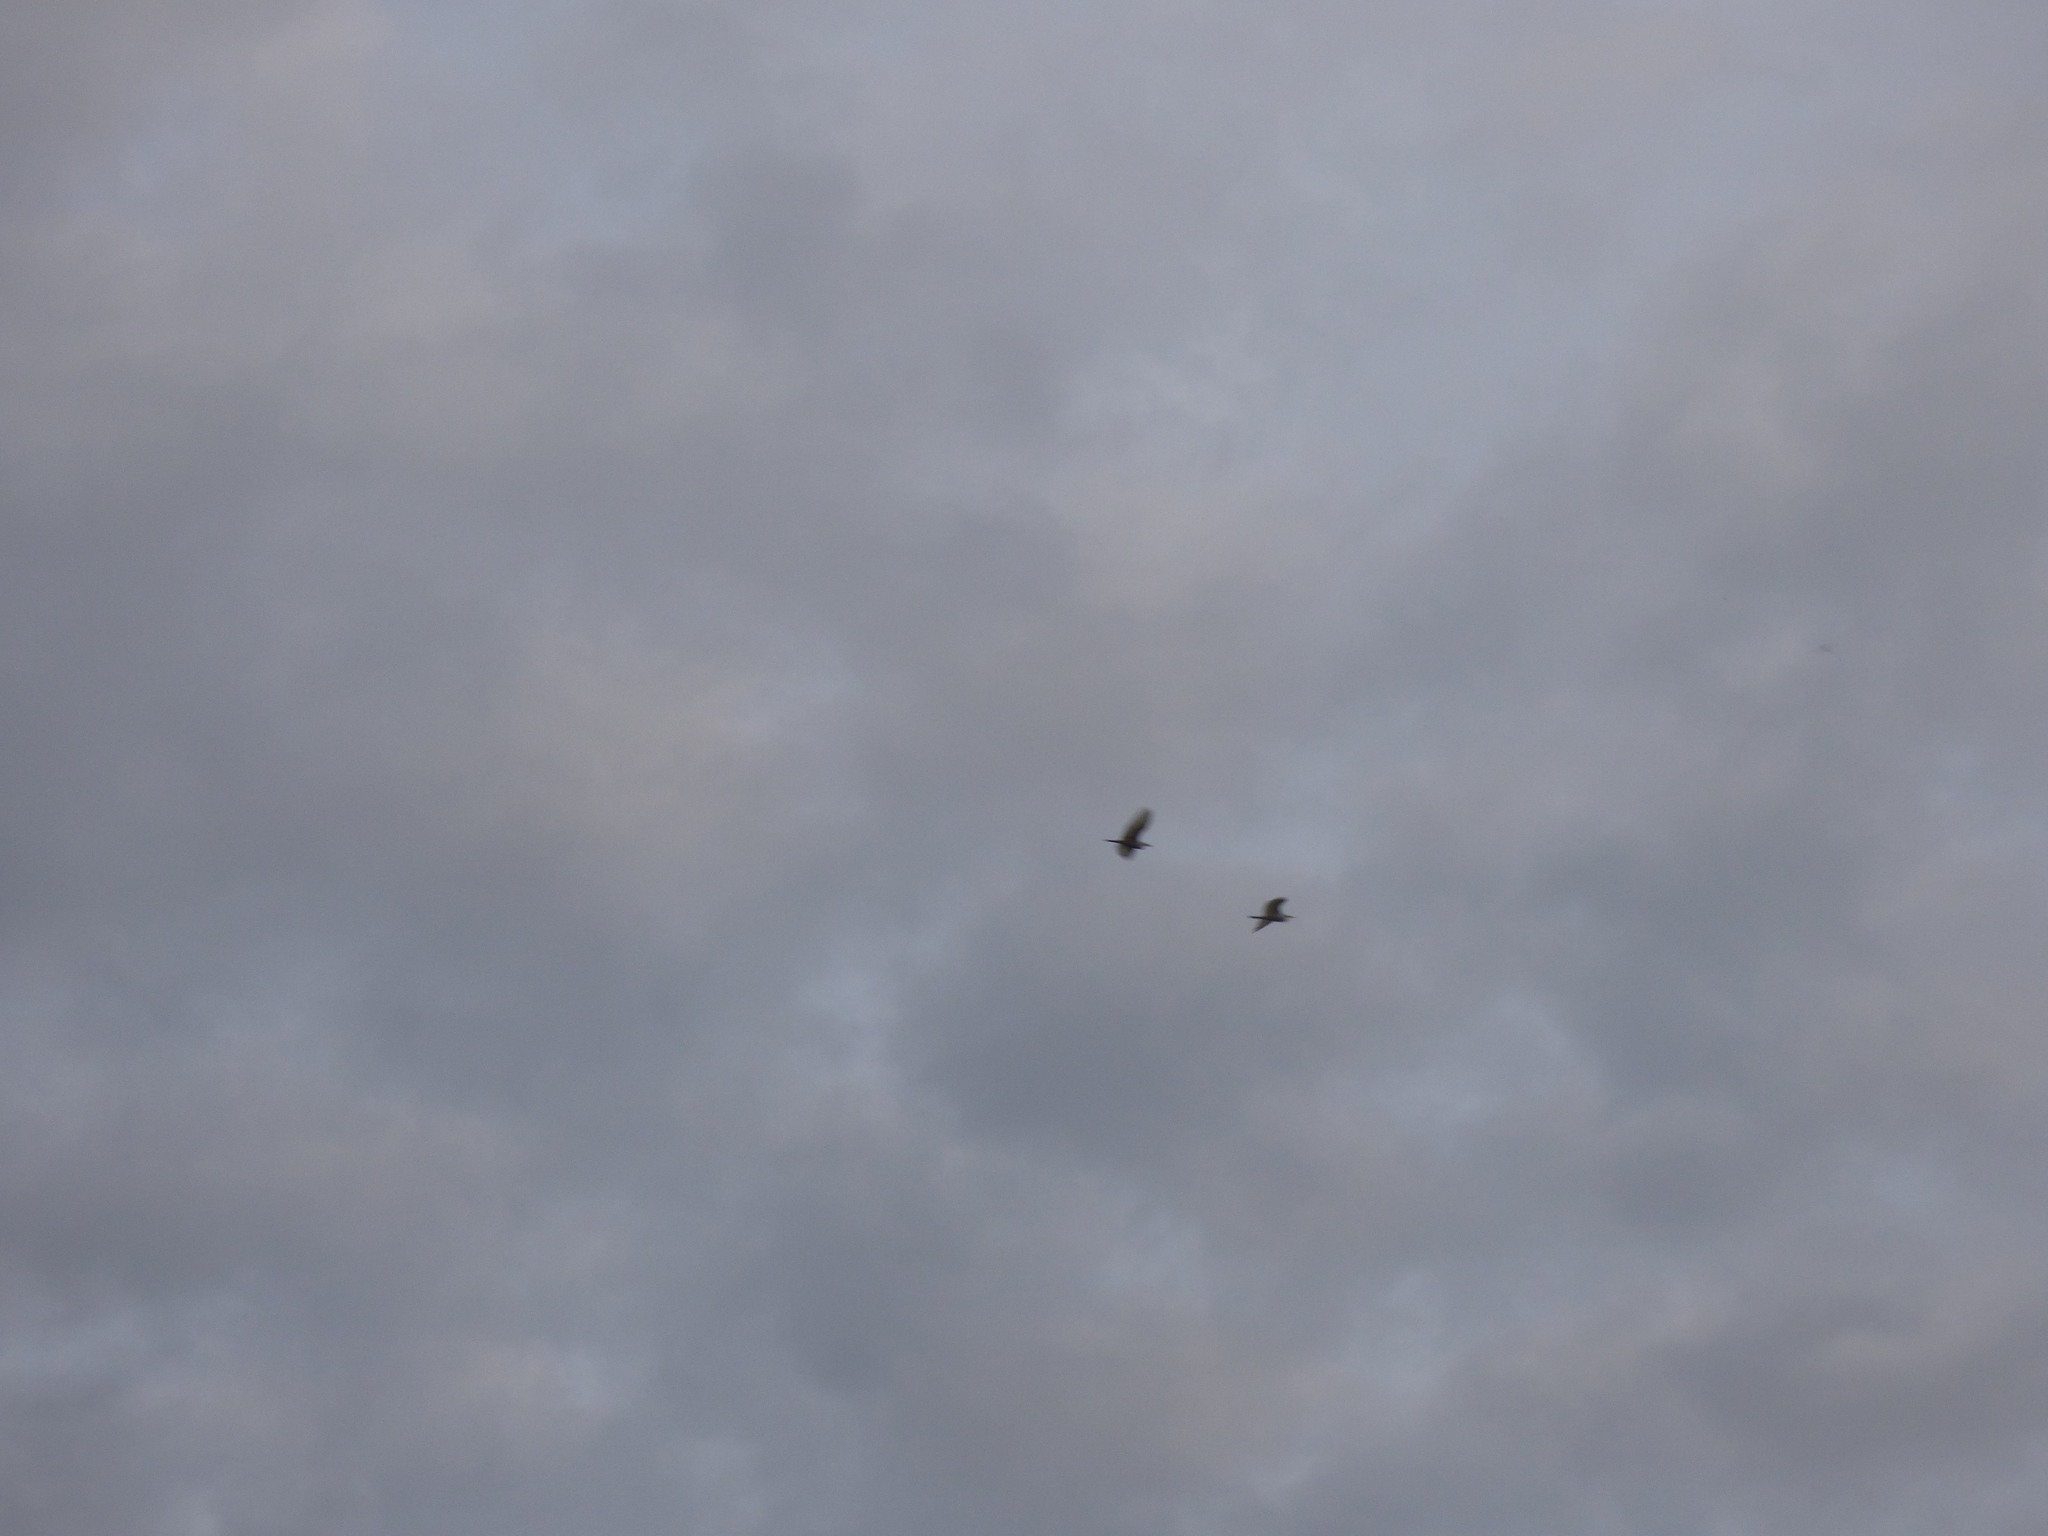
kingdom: Animalia
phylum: Chordata
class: Aves
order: Pelecaniformes
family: Ardeidae
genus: Bubulcus
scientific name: Bubulcus ibis
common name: Cattle egret
